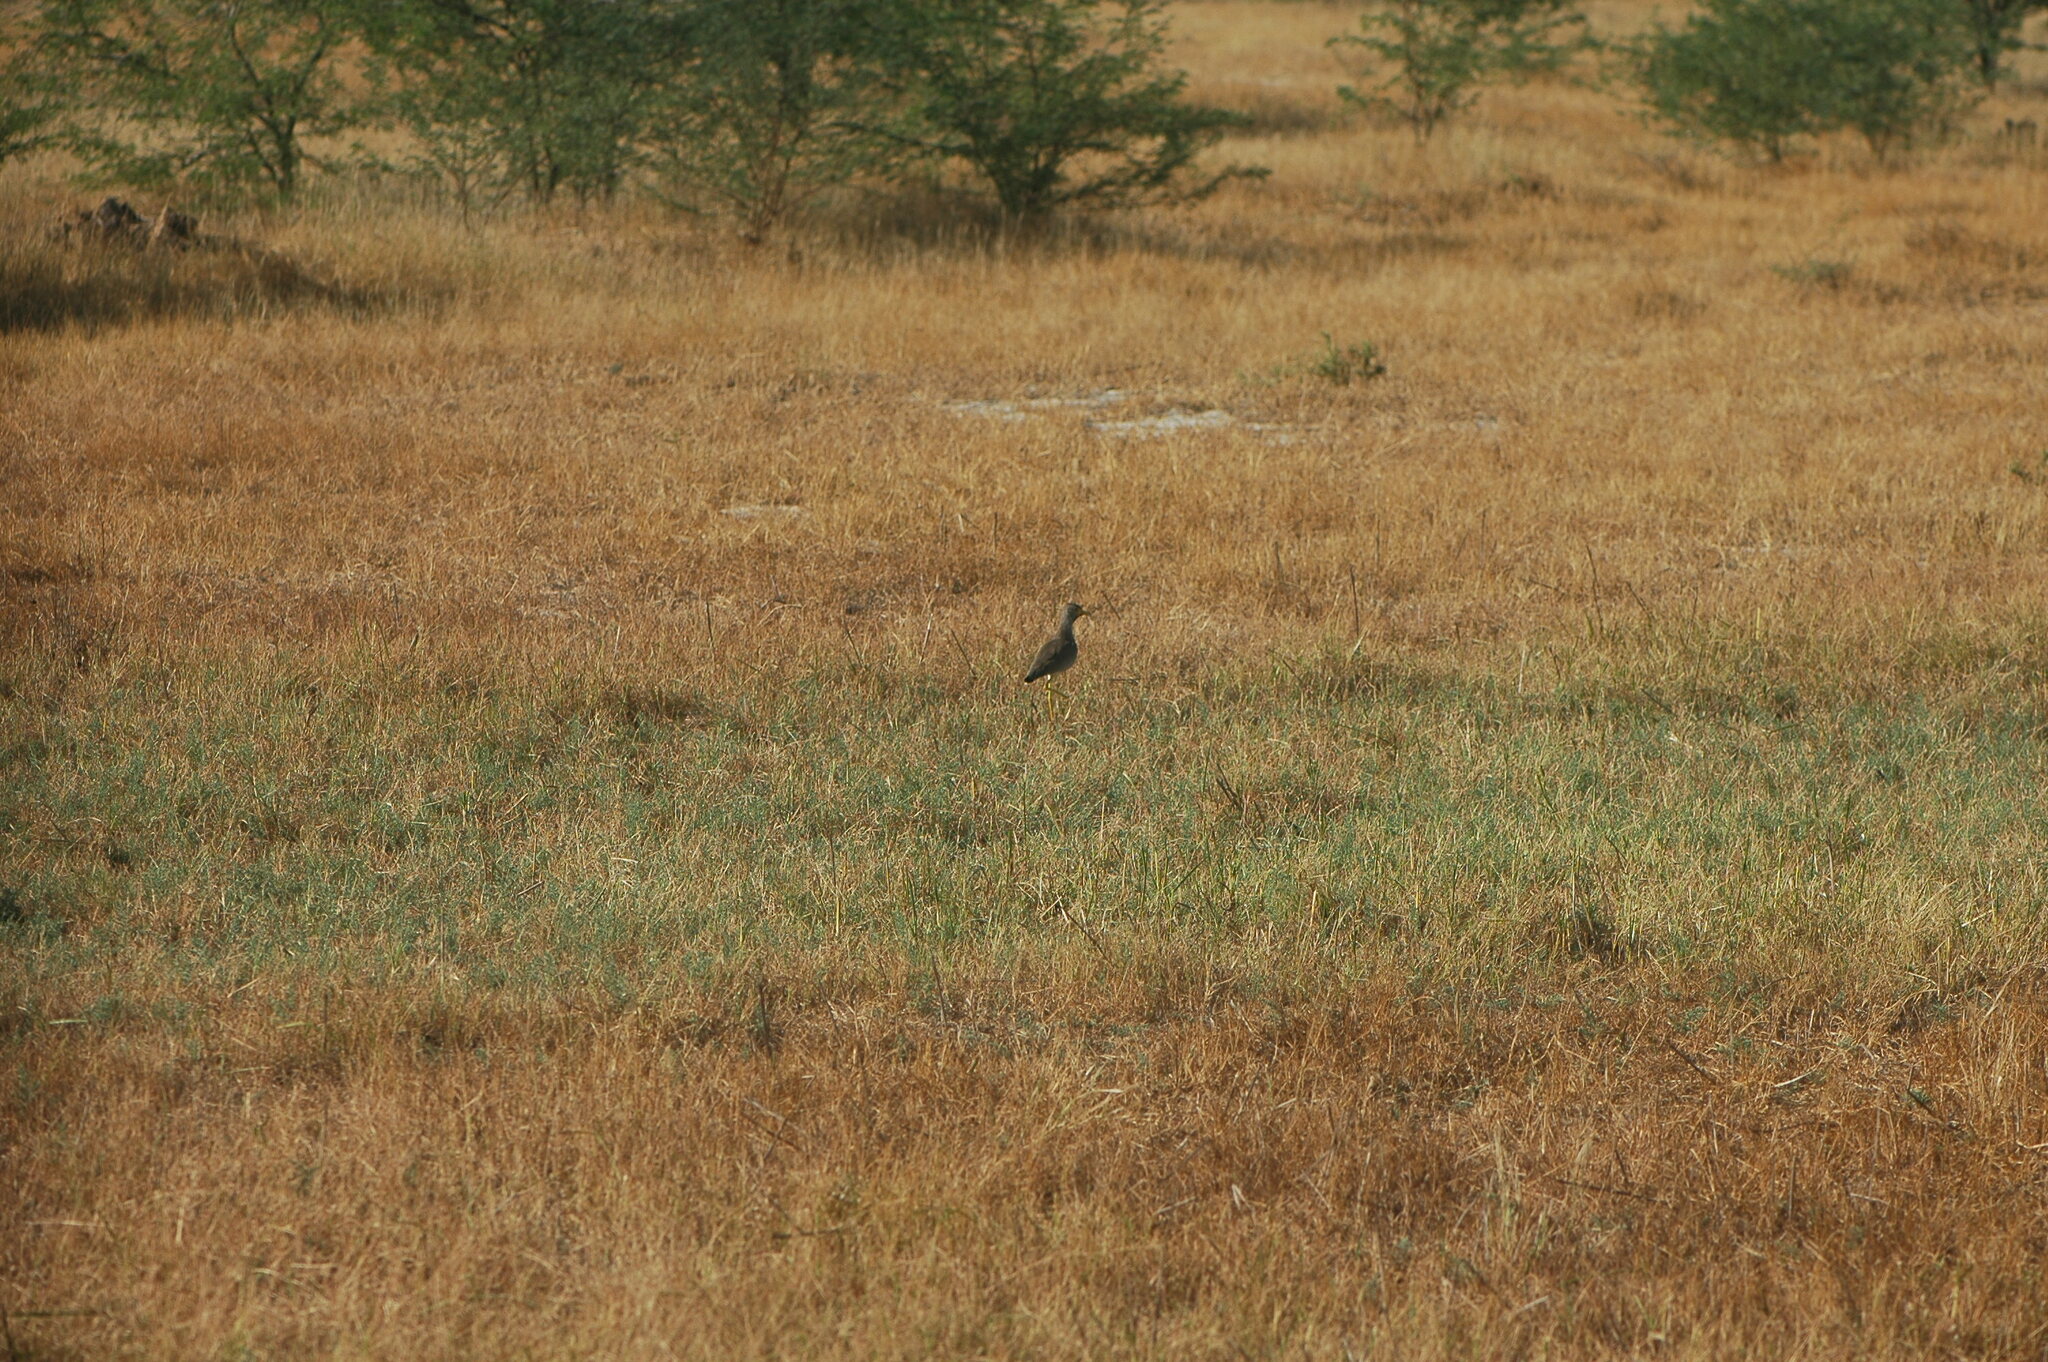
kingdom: Animalia
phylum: Chordata
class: Aves
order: Charadriiformes
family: Charadriidae
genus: Vanellus
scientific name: Vanellus senegallus
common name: African wattled lapwing
